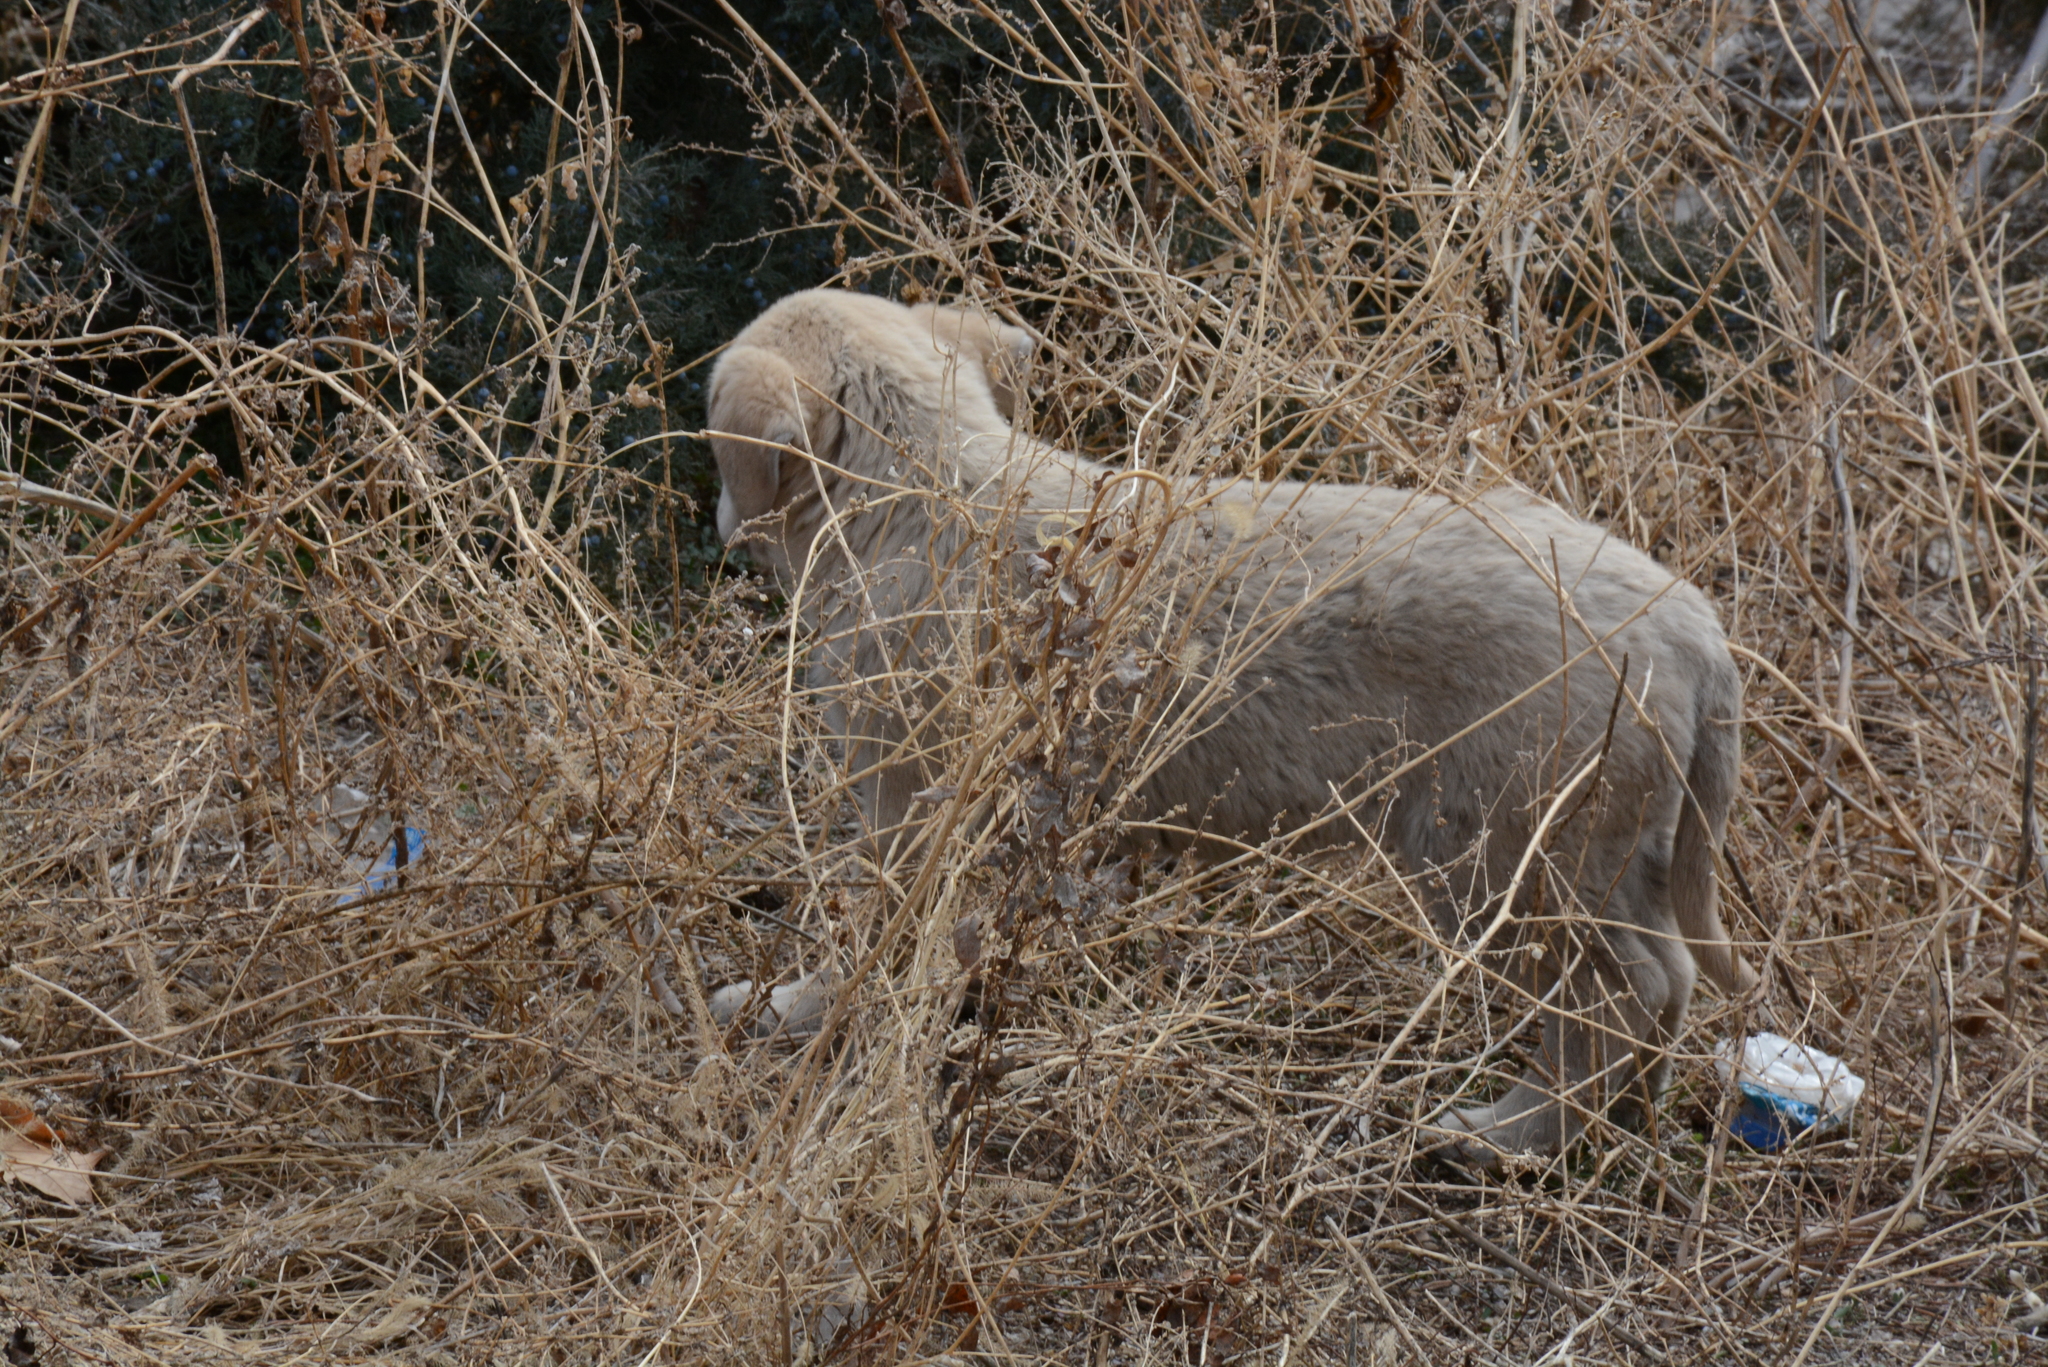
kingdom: Animalia
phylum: Chordata
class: Mammalia
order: Carnivora
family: Canidae
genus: Canis
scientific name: Canis lupus
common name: Gray wolf
